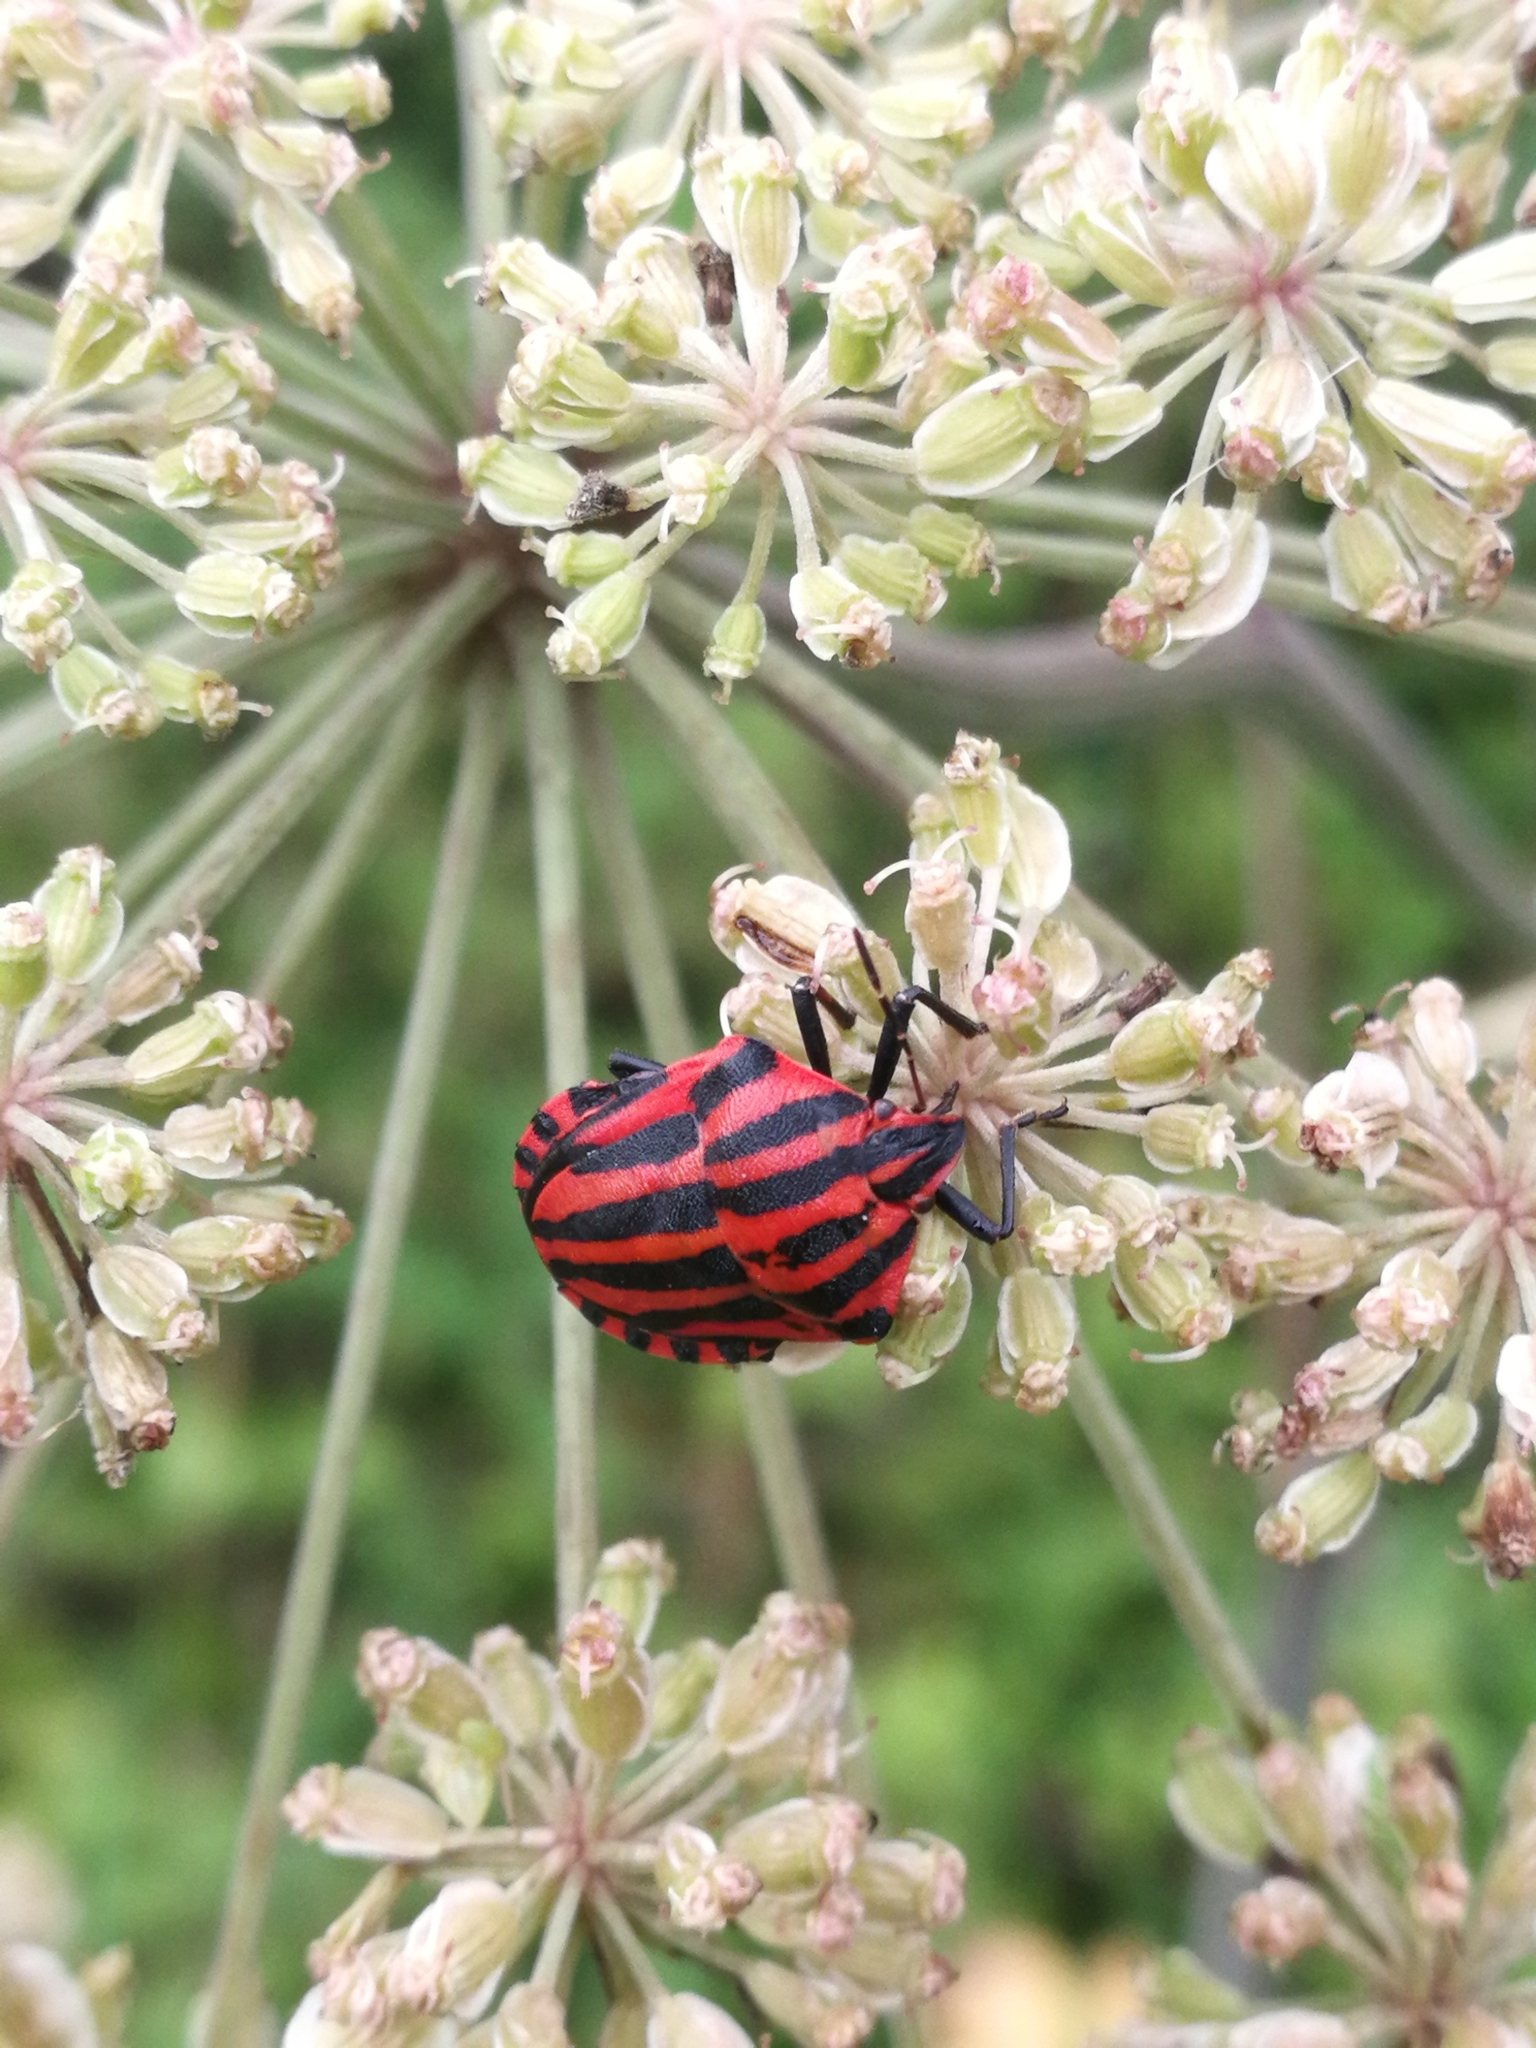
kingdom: Animalia
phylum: Arthropoda
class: Insecta
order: Hemiptera
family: Pentatomidae
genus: Graphosoma
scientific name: Graphosoma italicum
